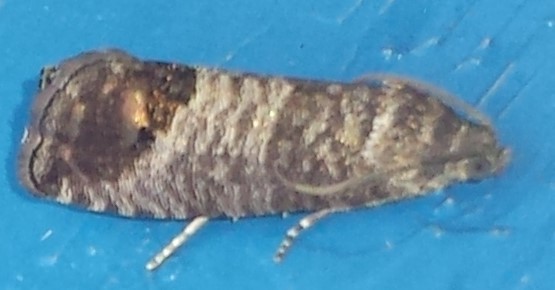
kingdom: Animalia
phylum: Arthropoda
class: Insecta
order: Lepidoptera
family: Tortricidae
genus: Cydia
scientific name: Cydia pomonella
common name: Codling moth
